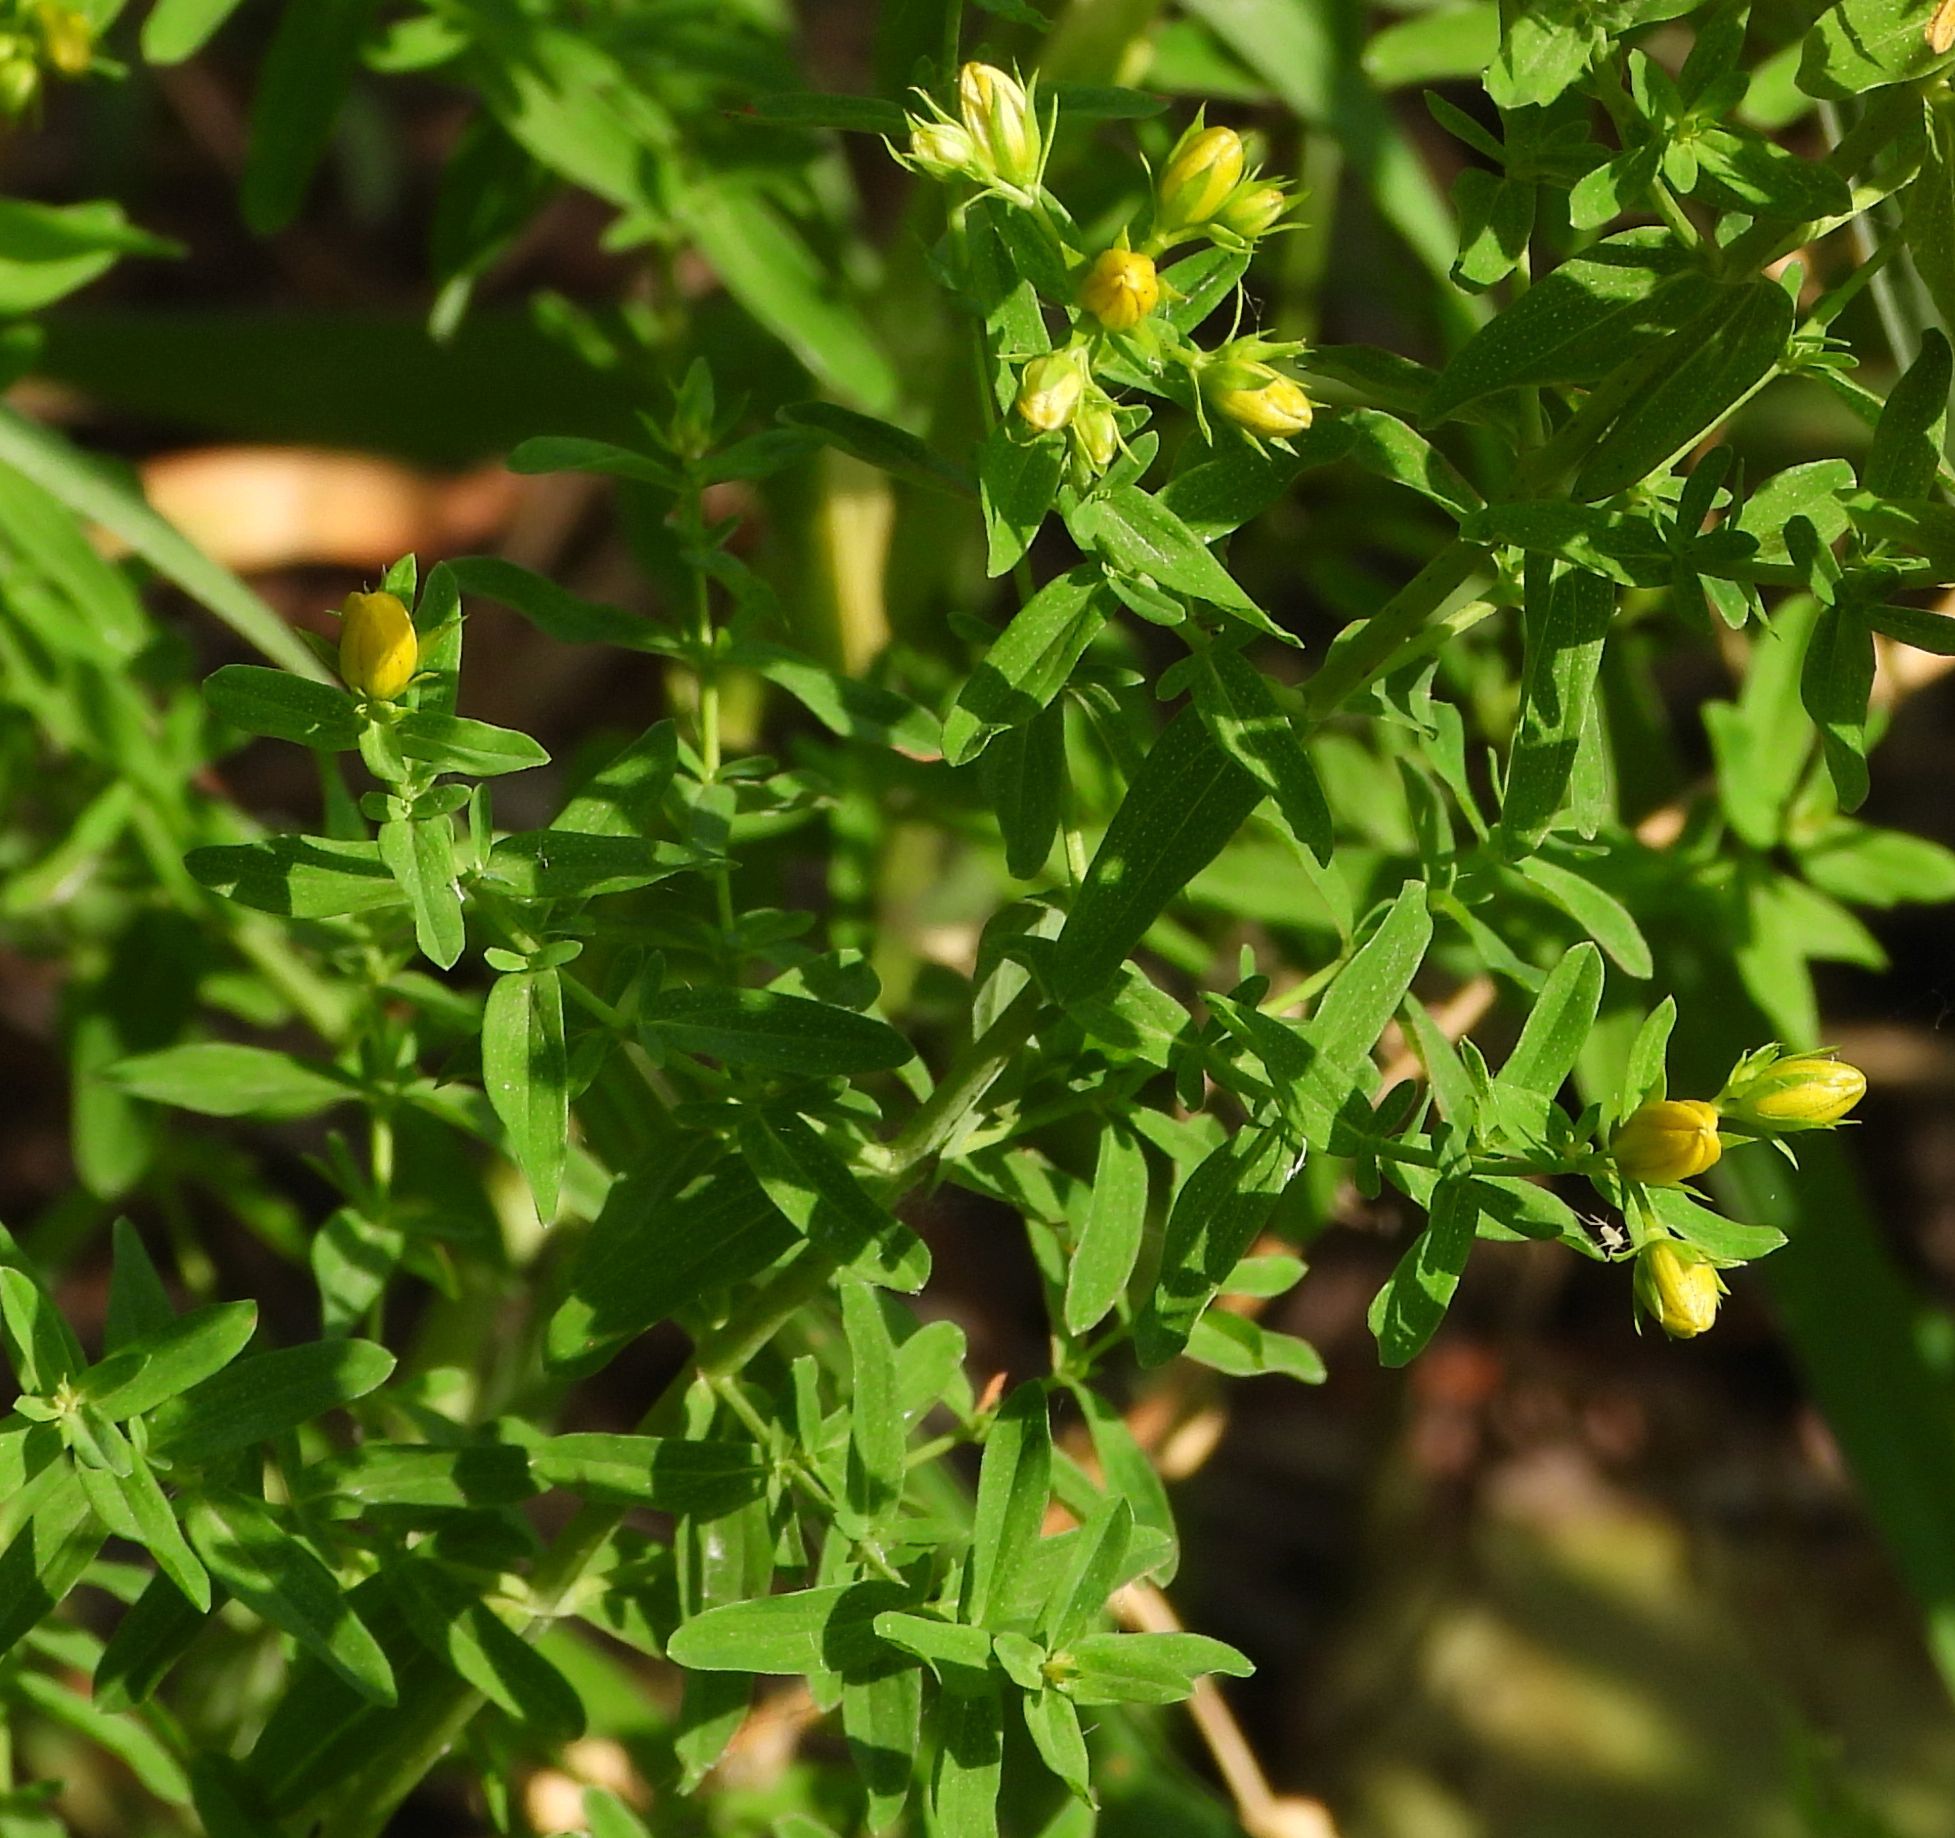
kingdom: Plantae
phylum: Tracheophyta
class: Magnoliopsida
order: Malpighiales
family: Hypericaceae
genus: Hypericum
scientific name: Hypericum perforatum
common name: Common st. johnswort
